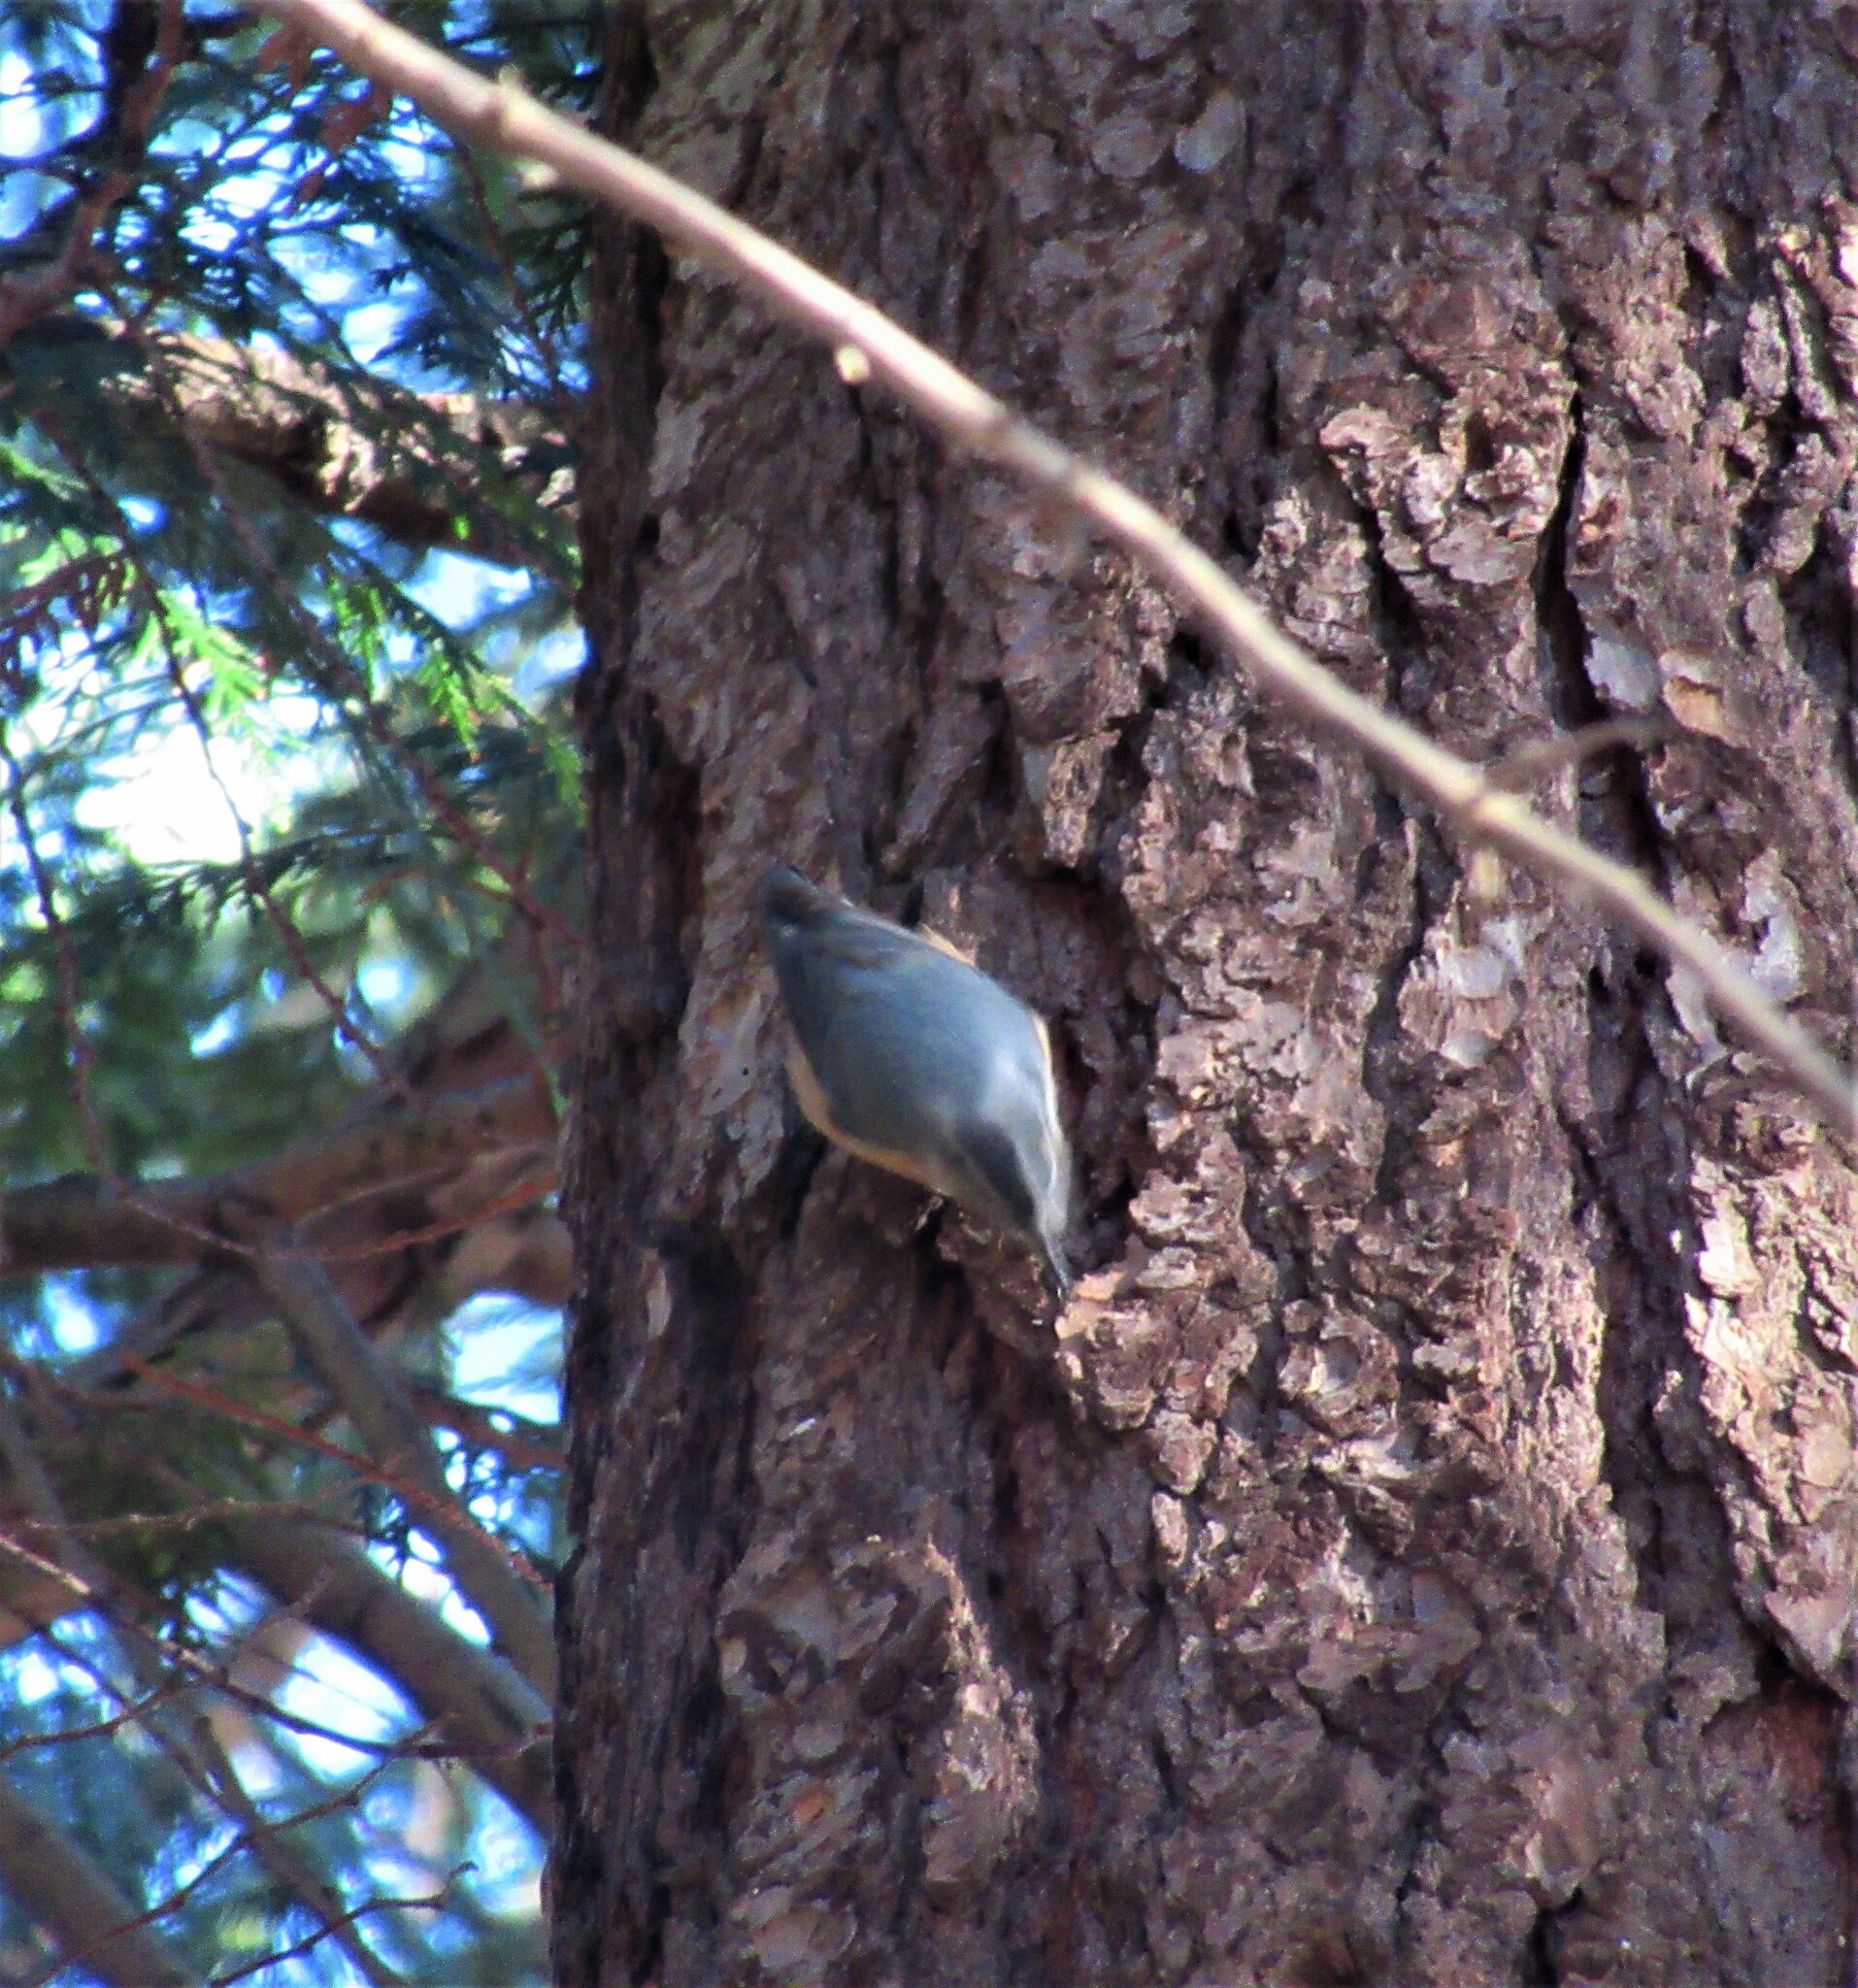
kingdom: Animalia
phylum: Chordata
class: Aves
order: Passeriformes
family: Sittidae
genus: Sitta
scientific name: Sitta canadensis
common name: Red-breasted nuthatch
